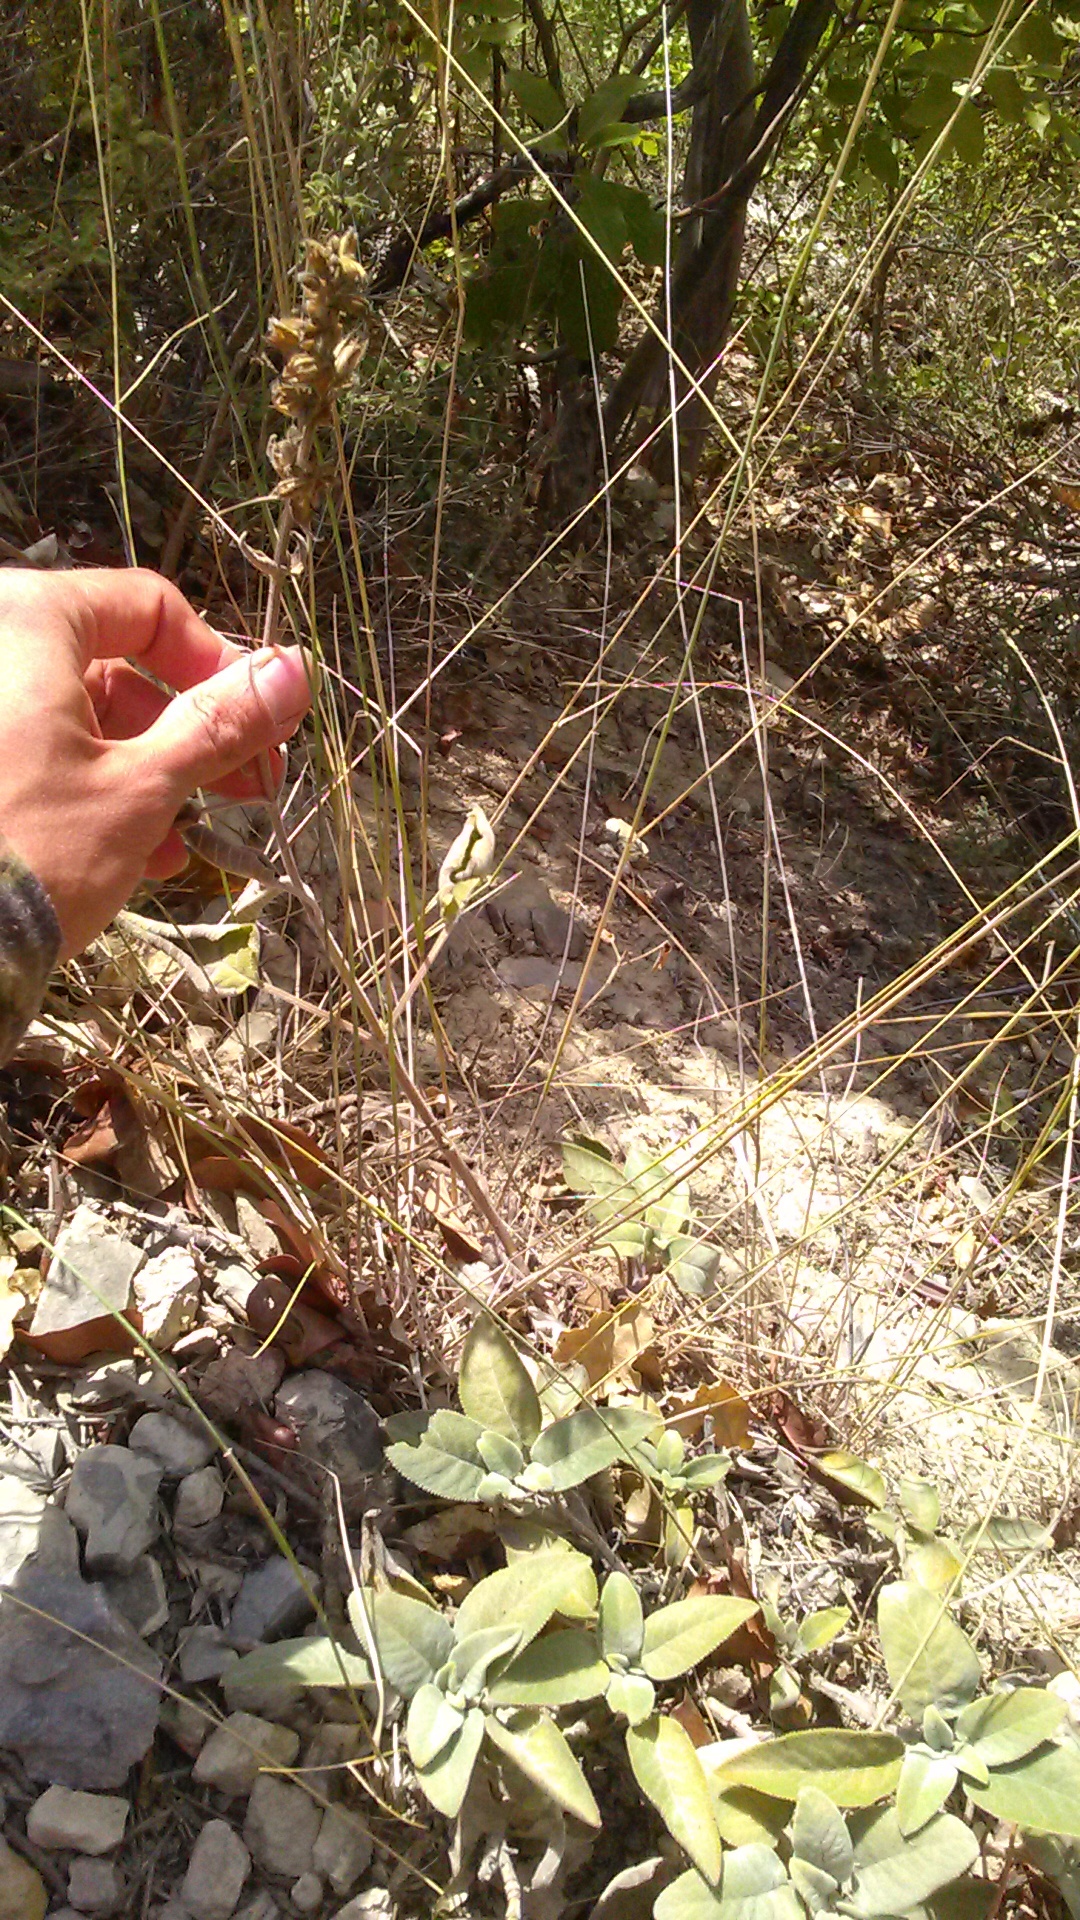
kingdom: Plantae
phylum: Tracheophyta
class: Magnoliopsida
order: Lamiales
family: Lamiaceae
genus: Salvia
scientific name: Salvia tomentosa
